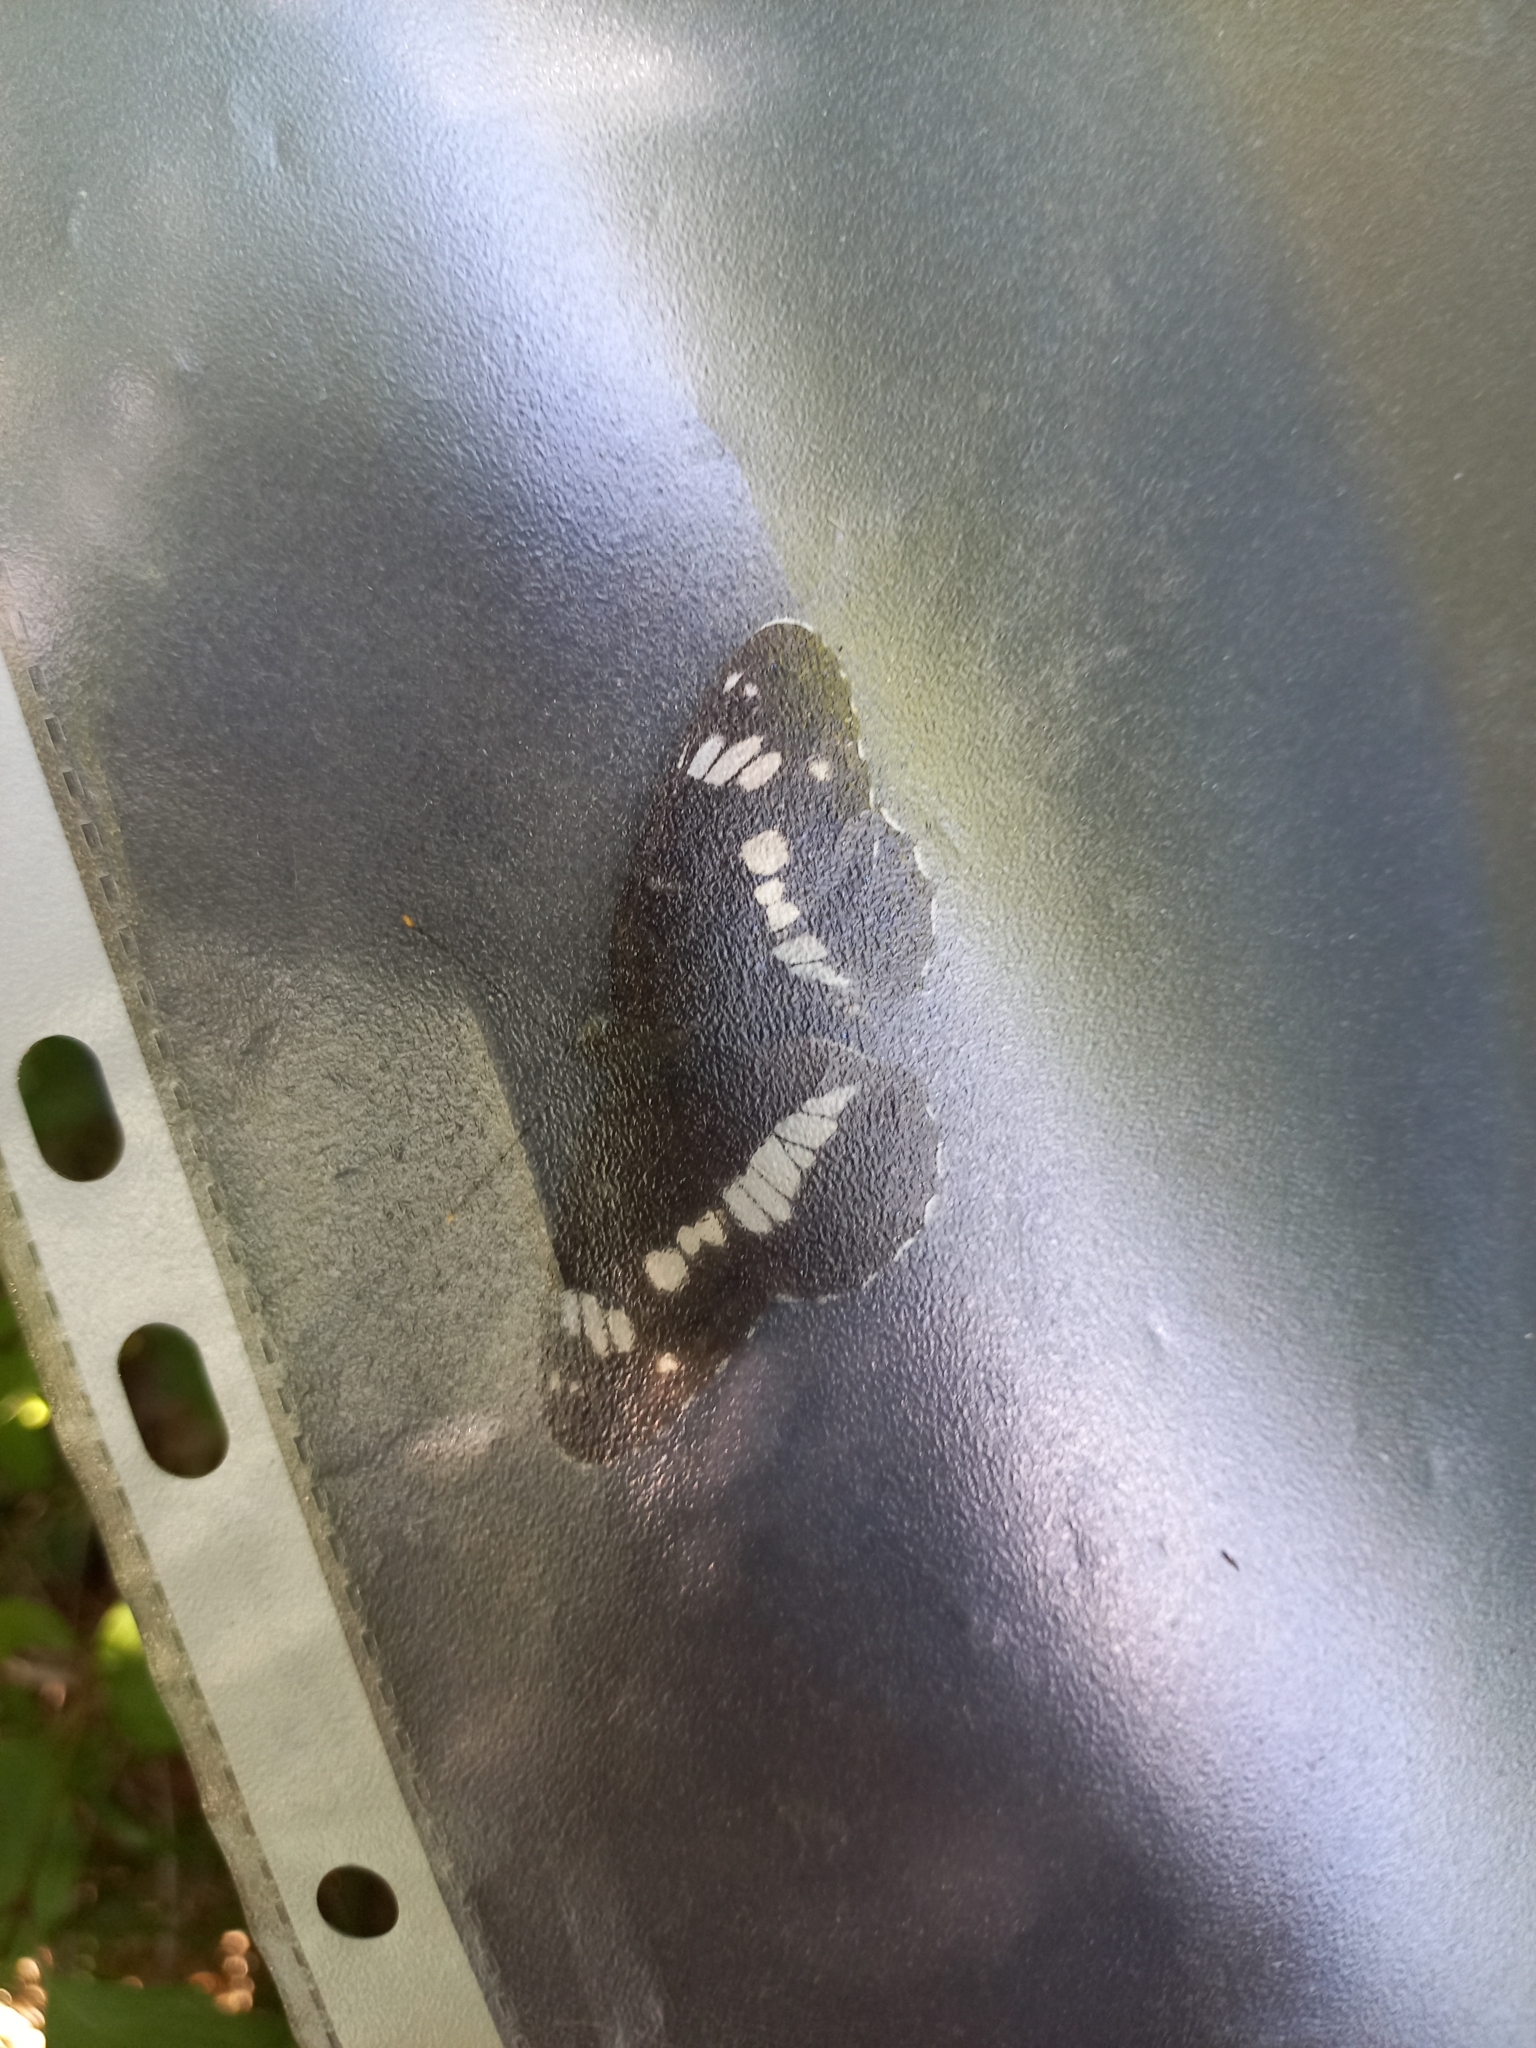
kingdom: Animalia
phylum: Arthropoda
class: Insecta
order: Lepidoptera
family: Nymphalidae
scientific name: Nymphalidae
